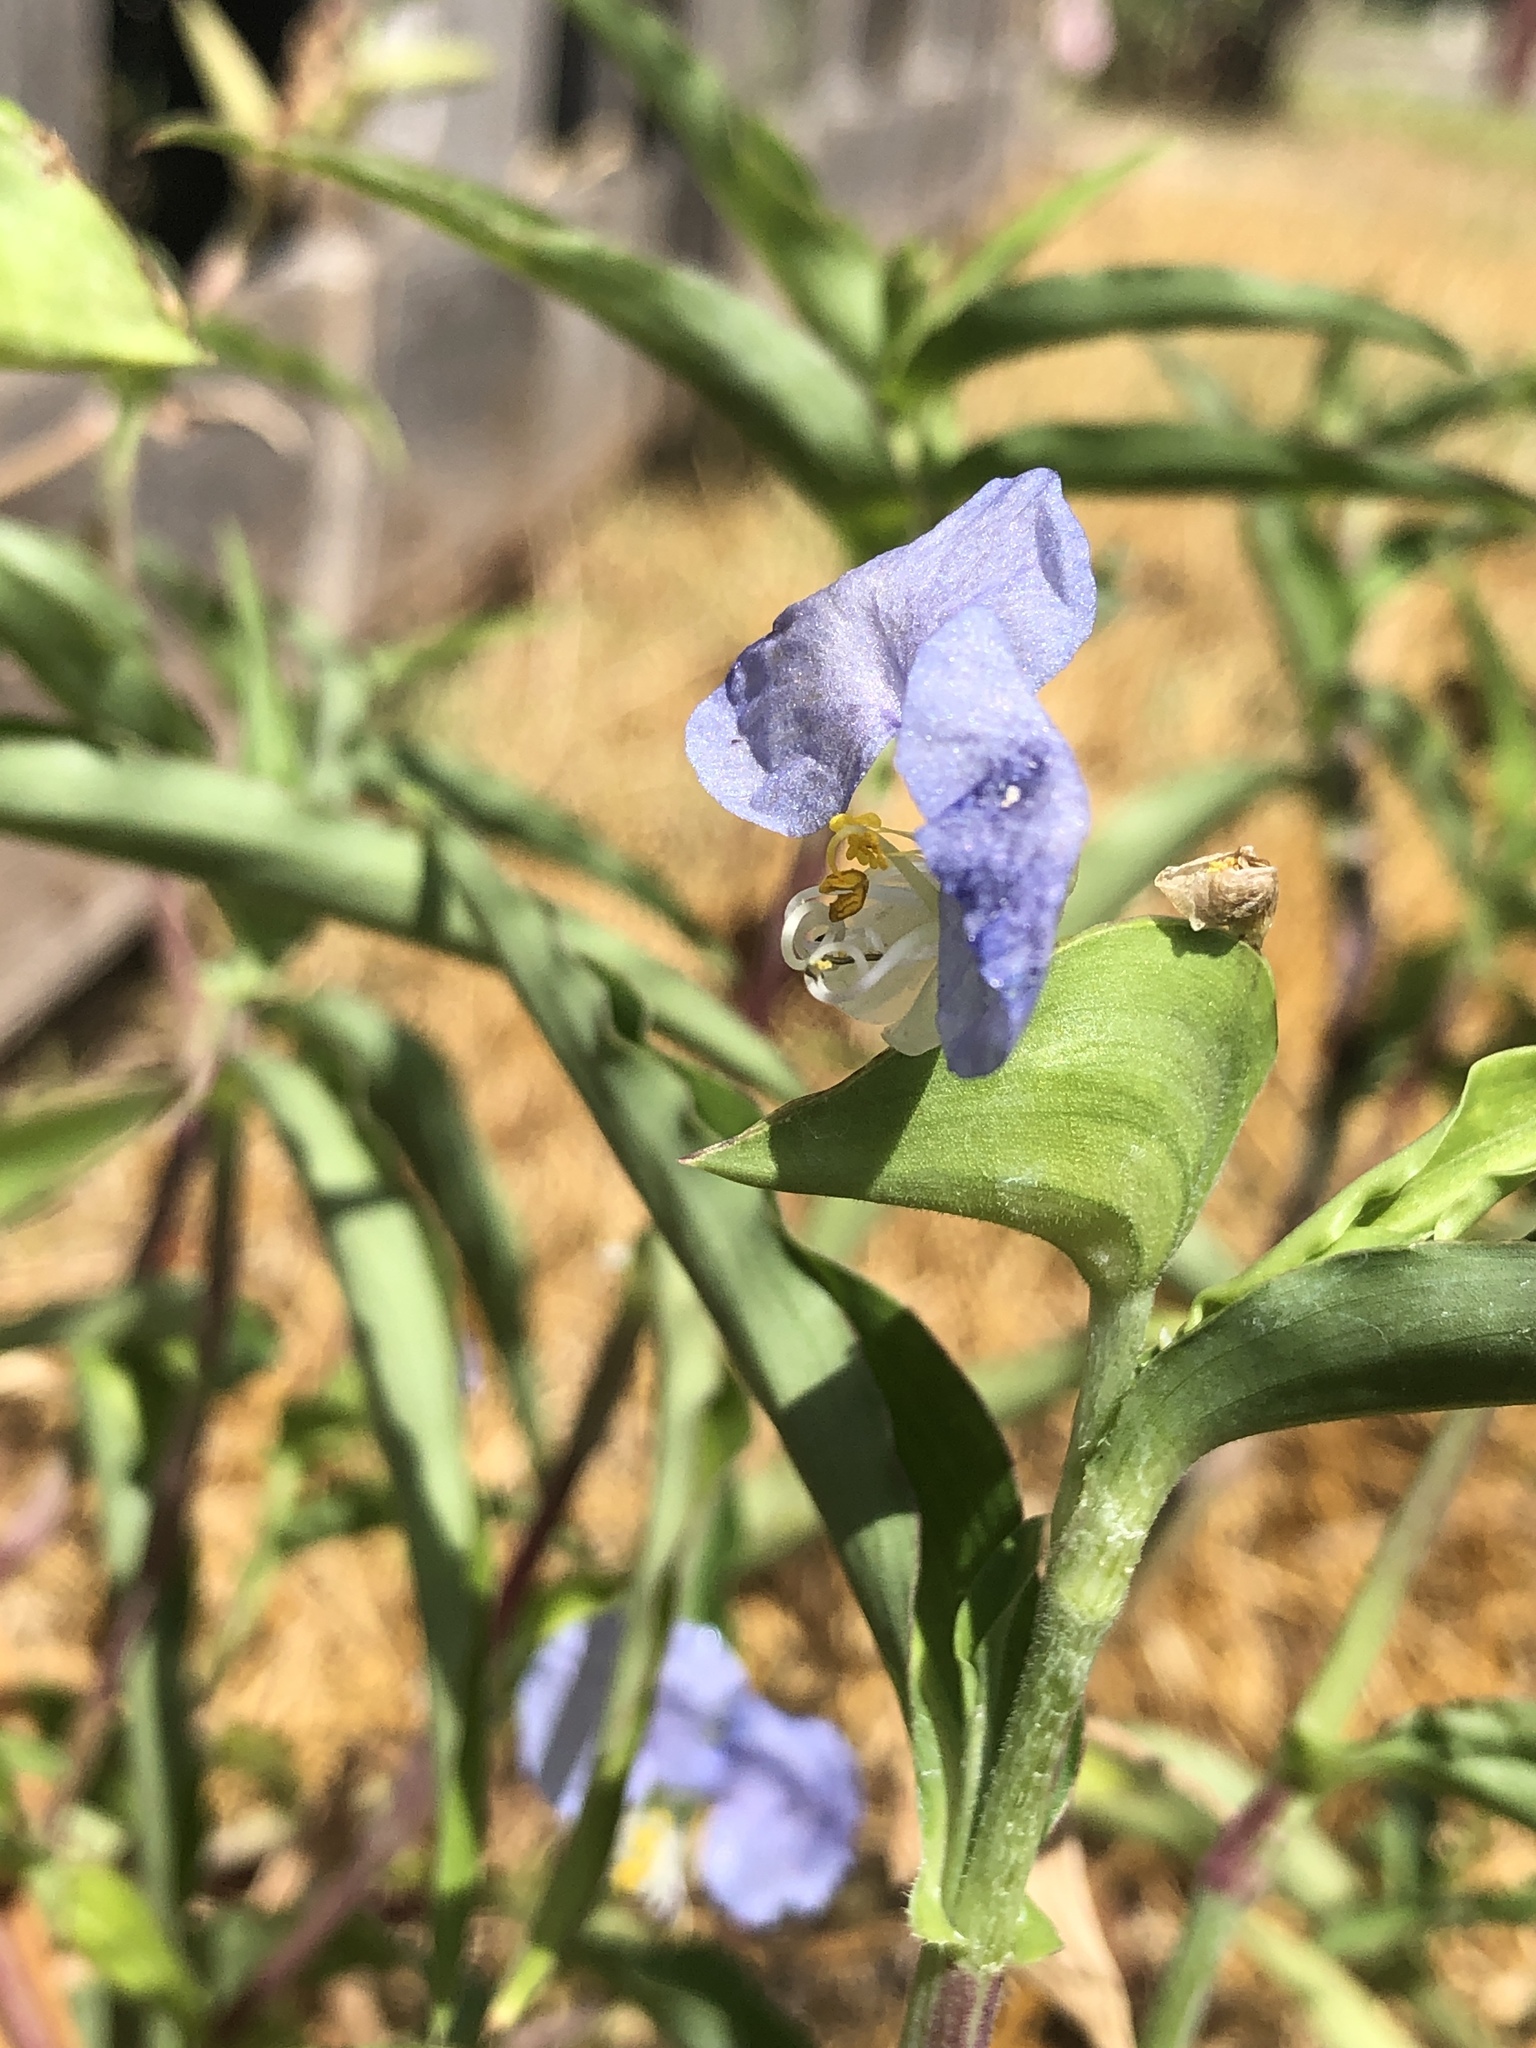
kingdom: Plantae
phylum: Tracheophyta
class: Liliopsida
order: Commelinales
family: Commelinaceae
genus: Commelina
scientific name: Commelina erecta
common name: Blousel blommetjie
